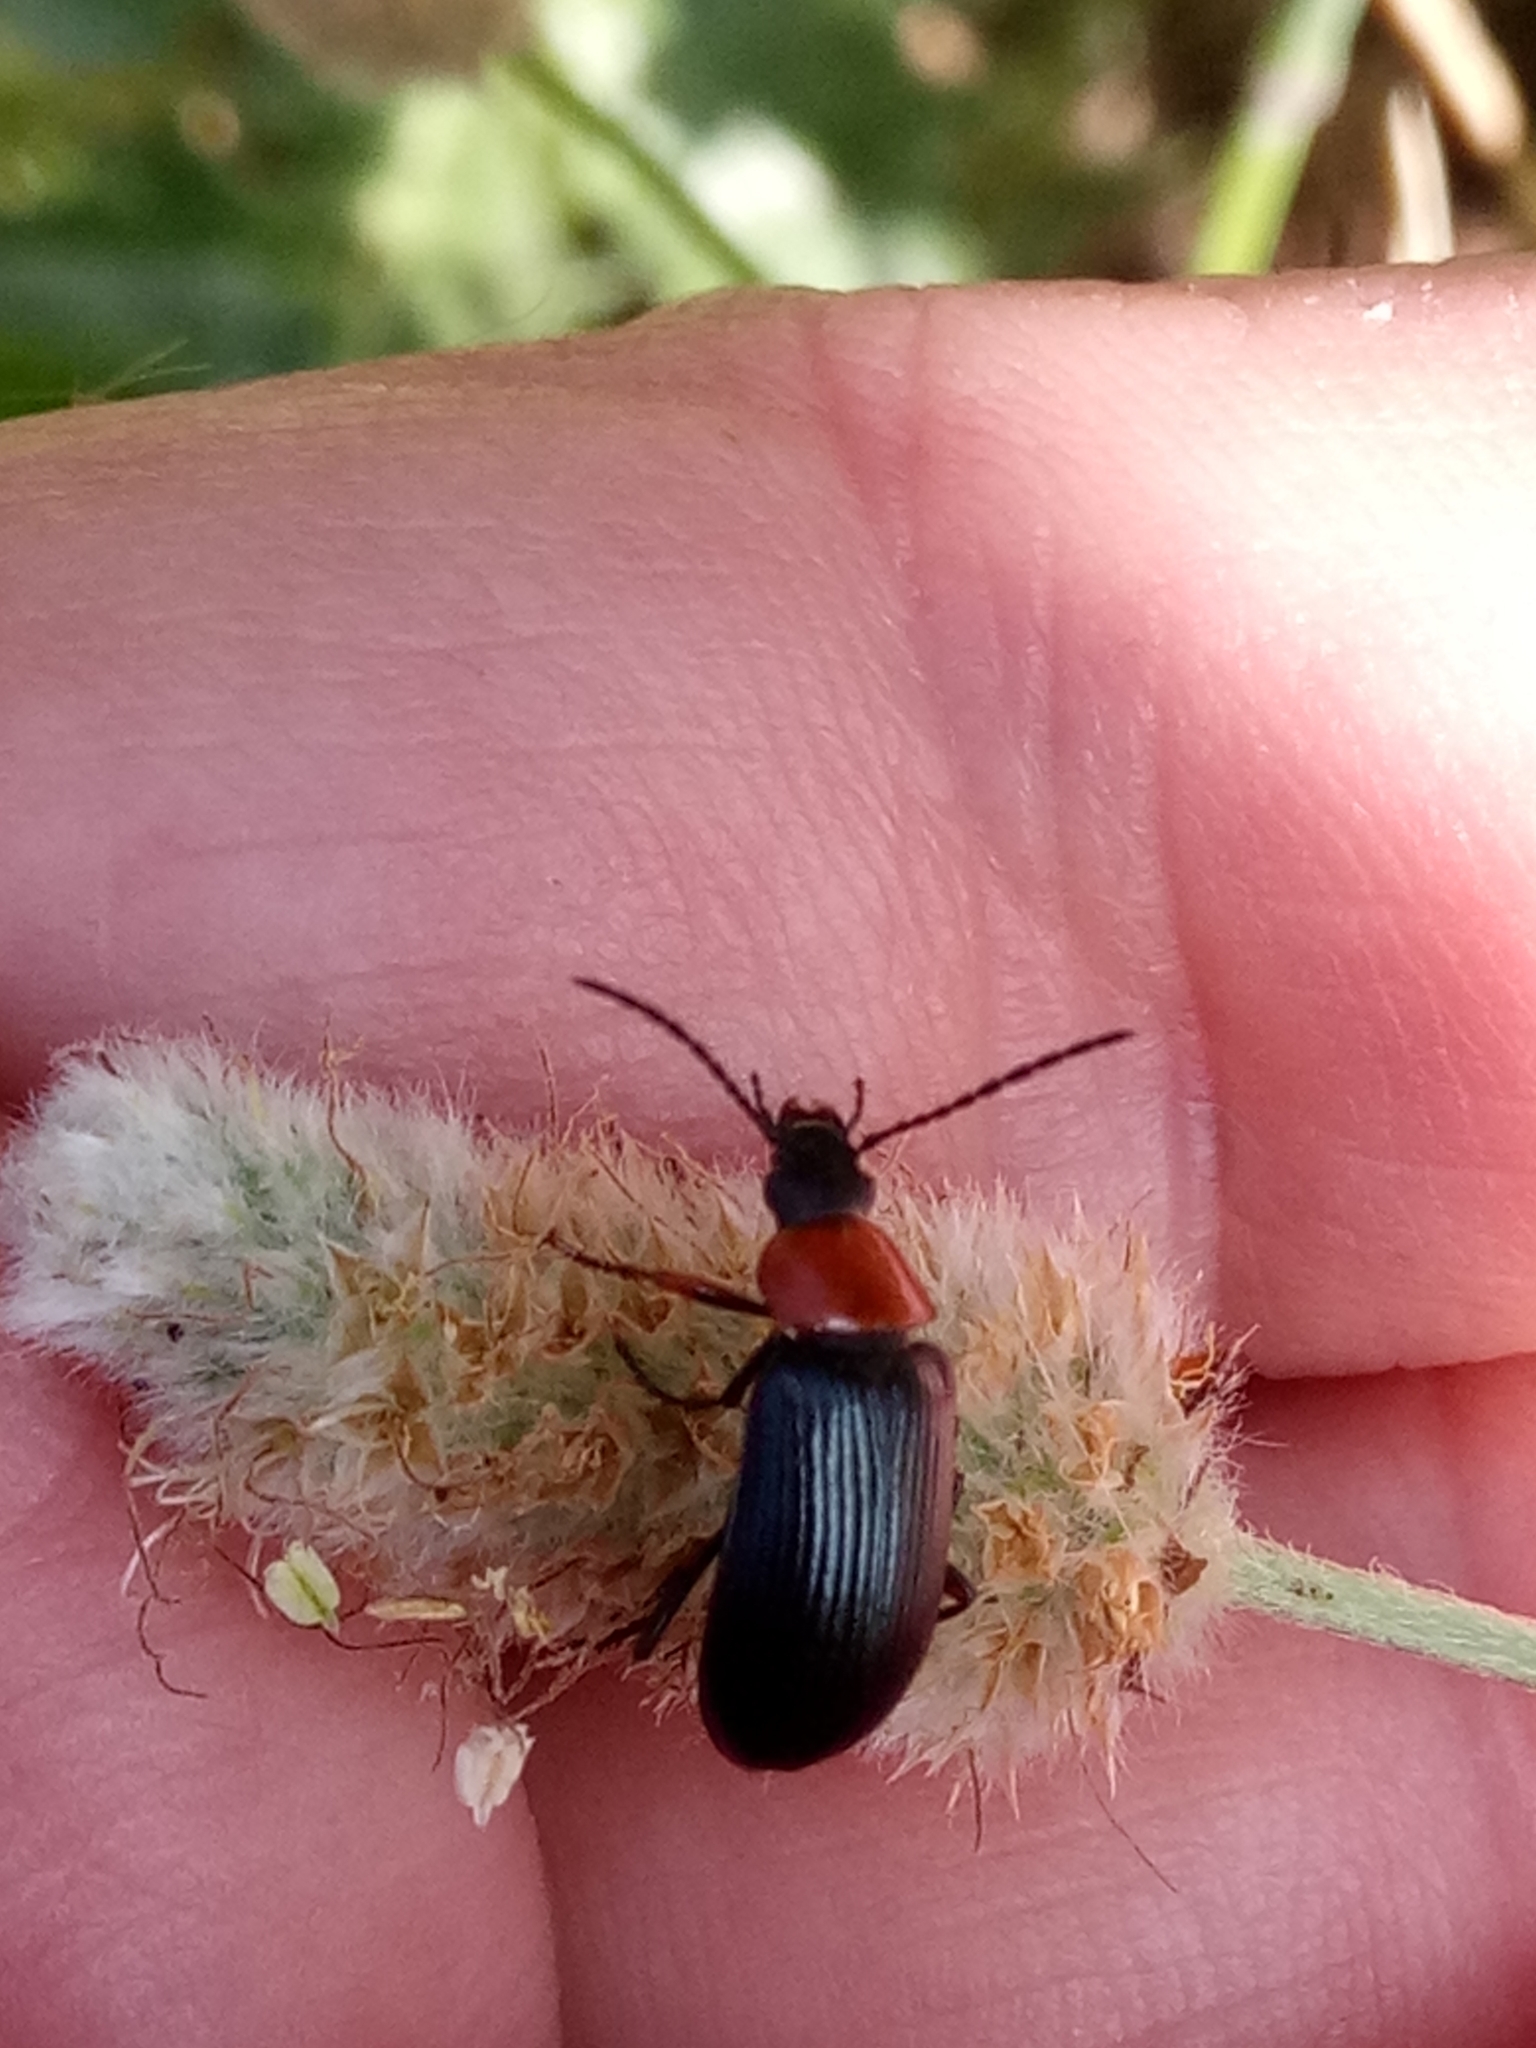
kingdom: Animalia
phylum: Arthropoda
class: Insecta
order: Coleoptera
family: Tenebrionidae
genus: Heliotaurus
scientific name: Heliotaurus ruficollis
